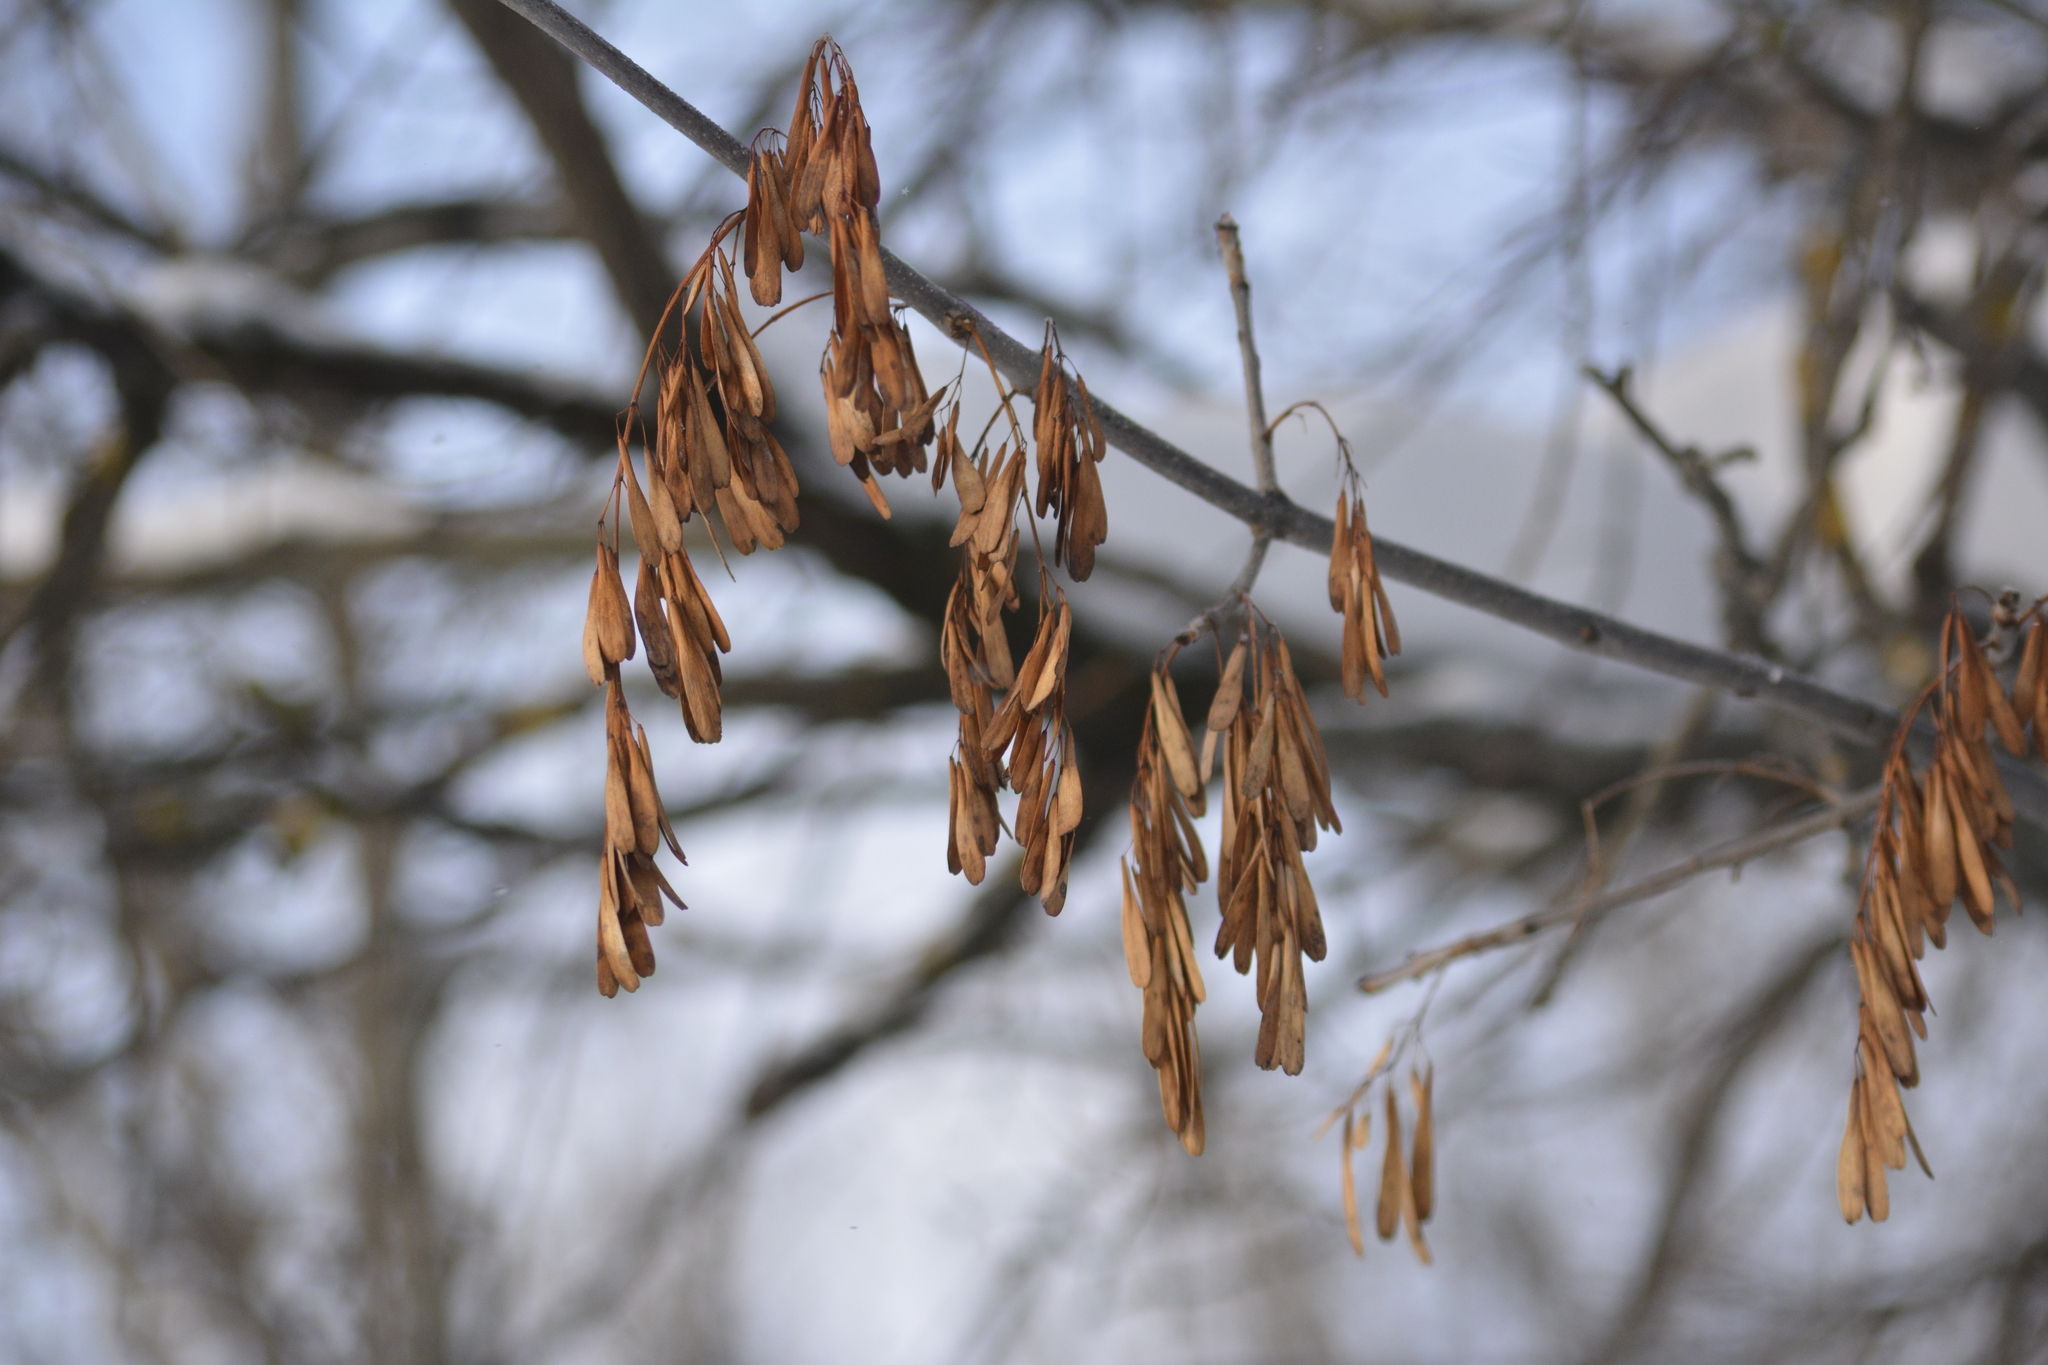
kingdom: Plantae
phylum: Tracheophyta
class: Magnoliopsida
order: Lamiales
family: Oleaceae
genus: Fraxinus
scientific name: Fraxinus pennsylvanica
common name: Green ash
